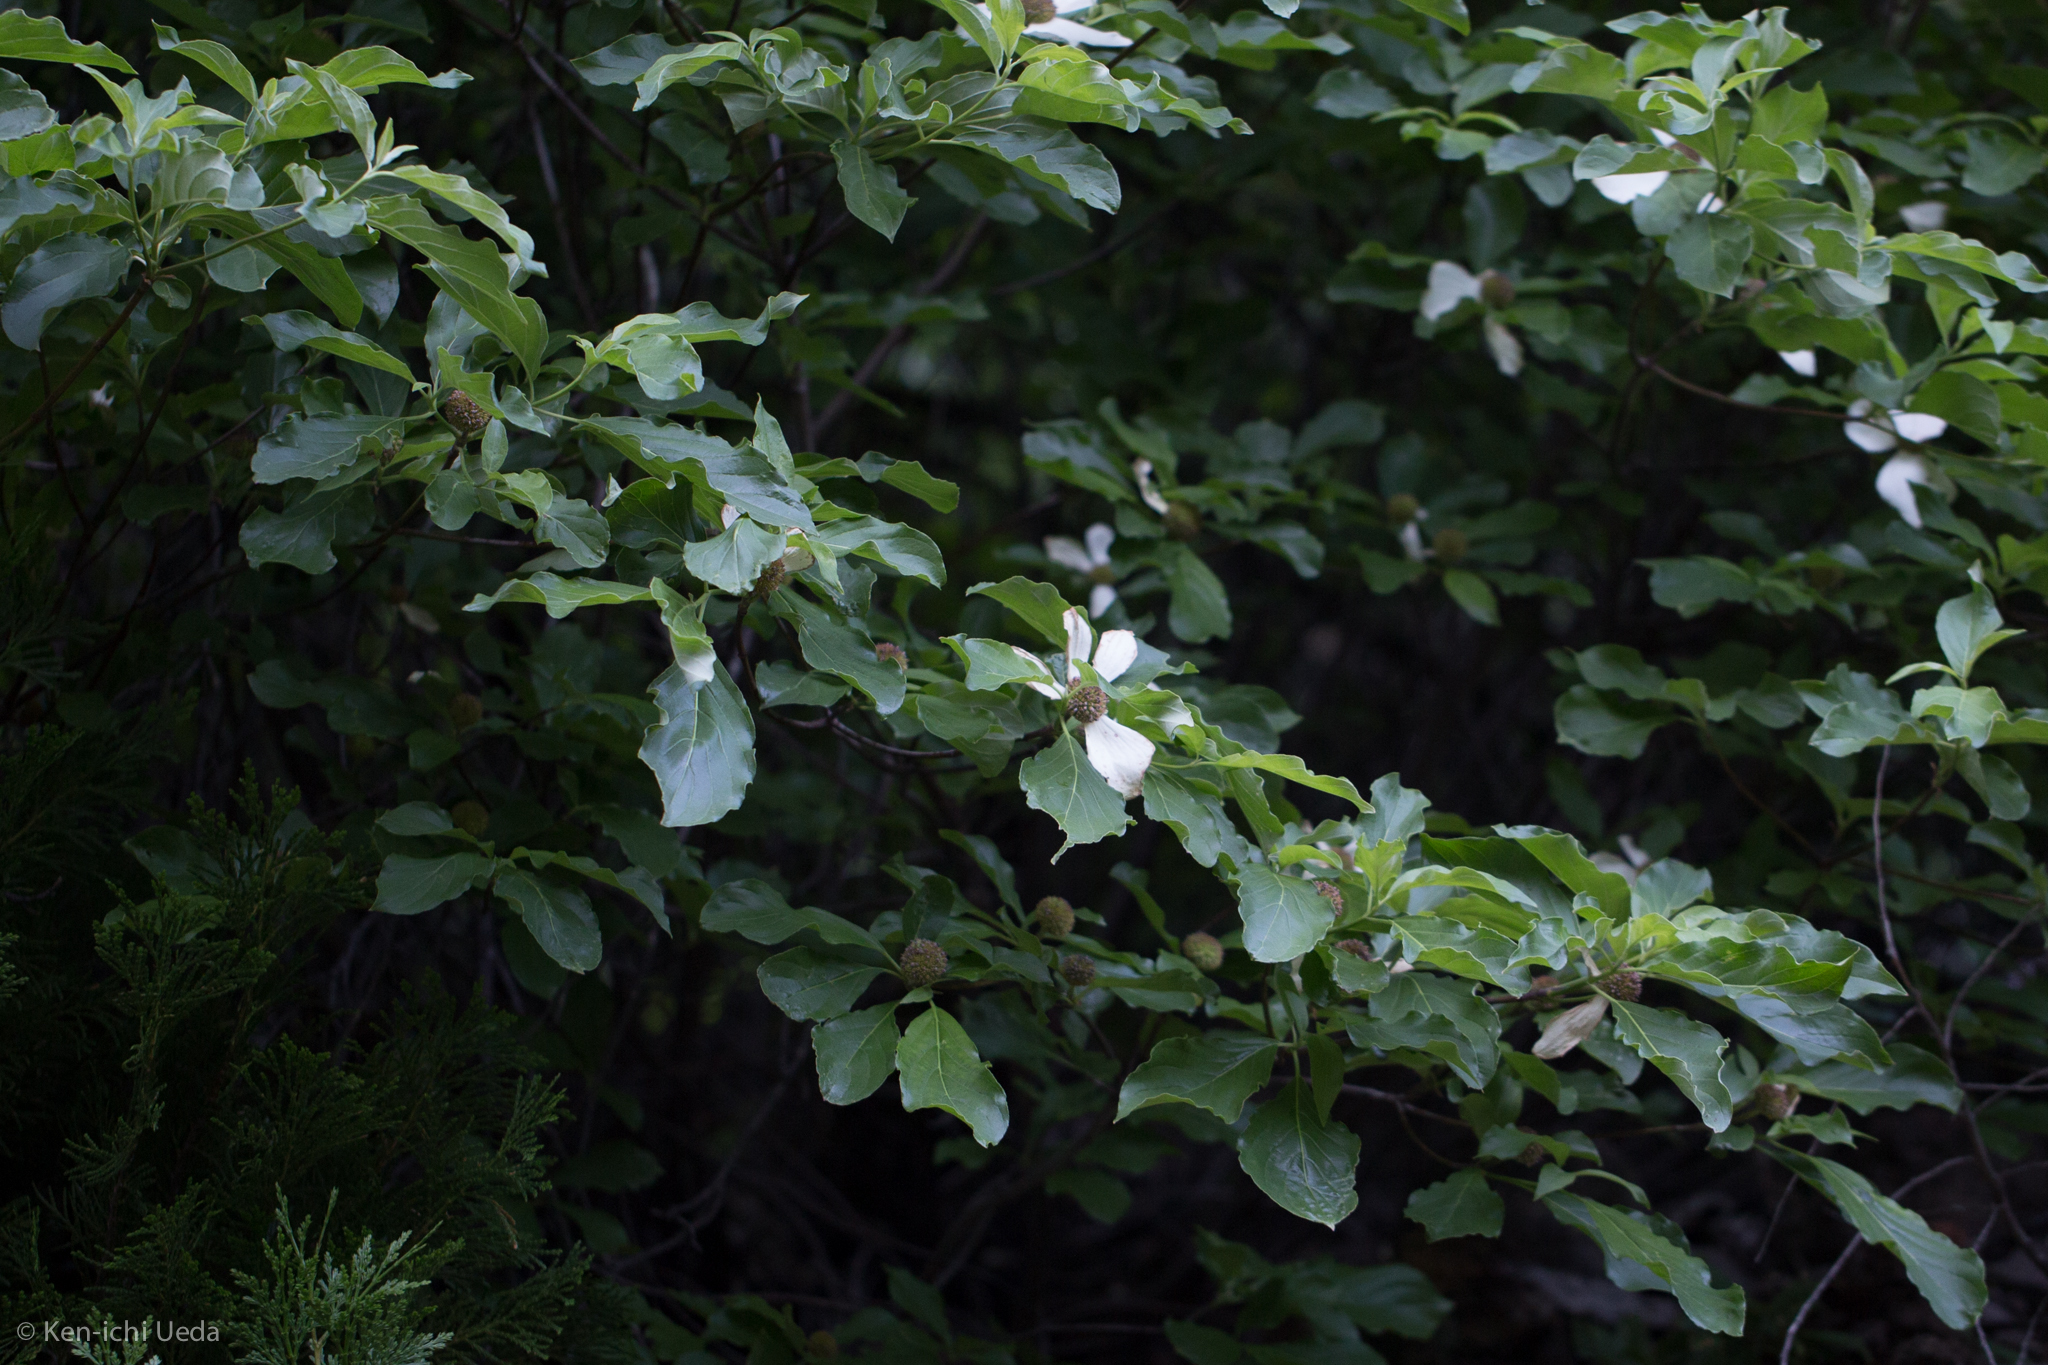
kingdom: Plantae
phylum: Tracheophyta
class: Magnoliopsida
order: Cornales
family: Cornaceae
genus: Cornus
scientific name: Cornus nuttallii
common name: Pacific dogwood
